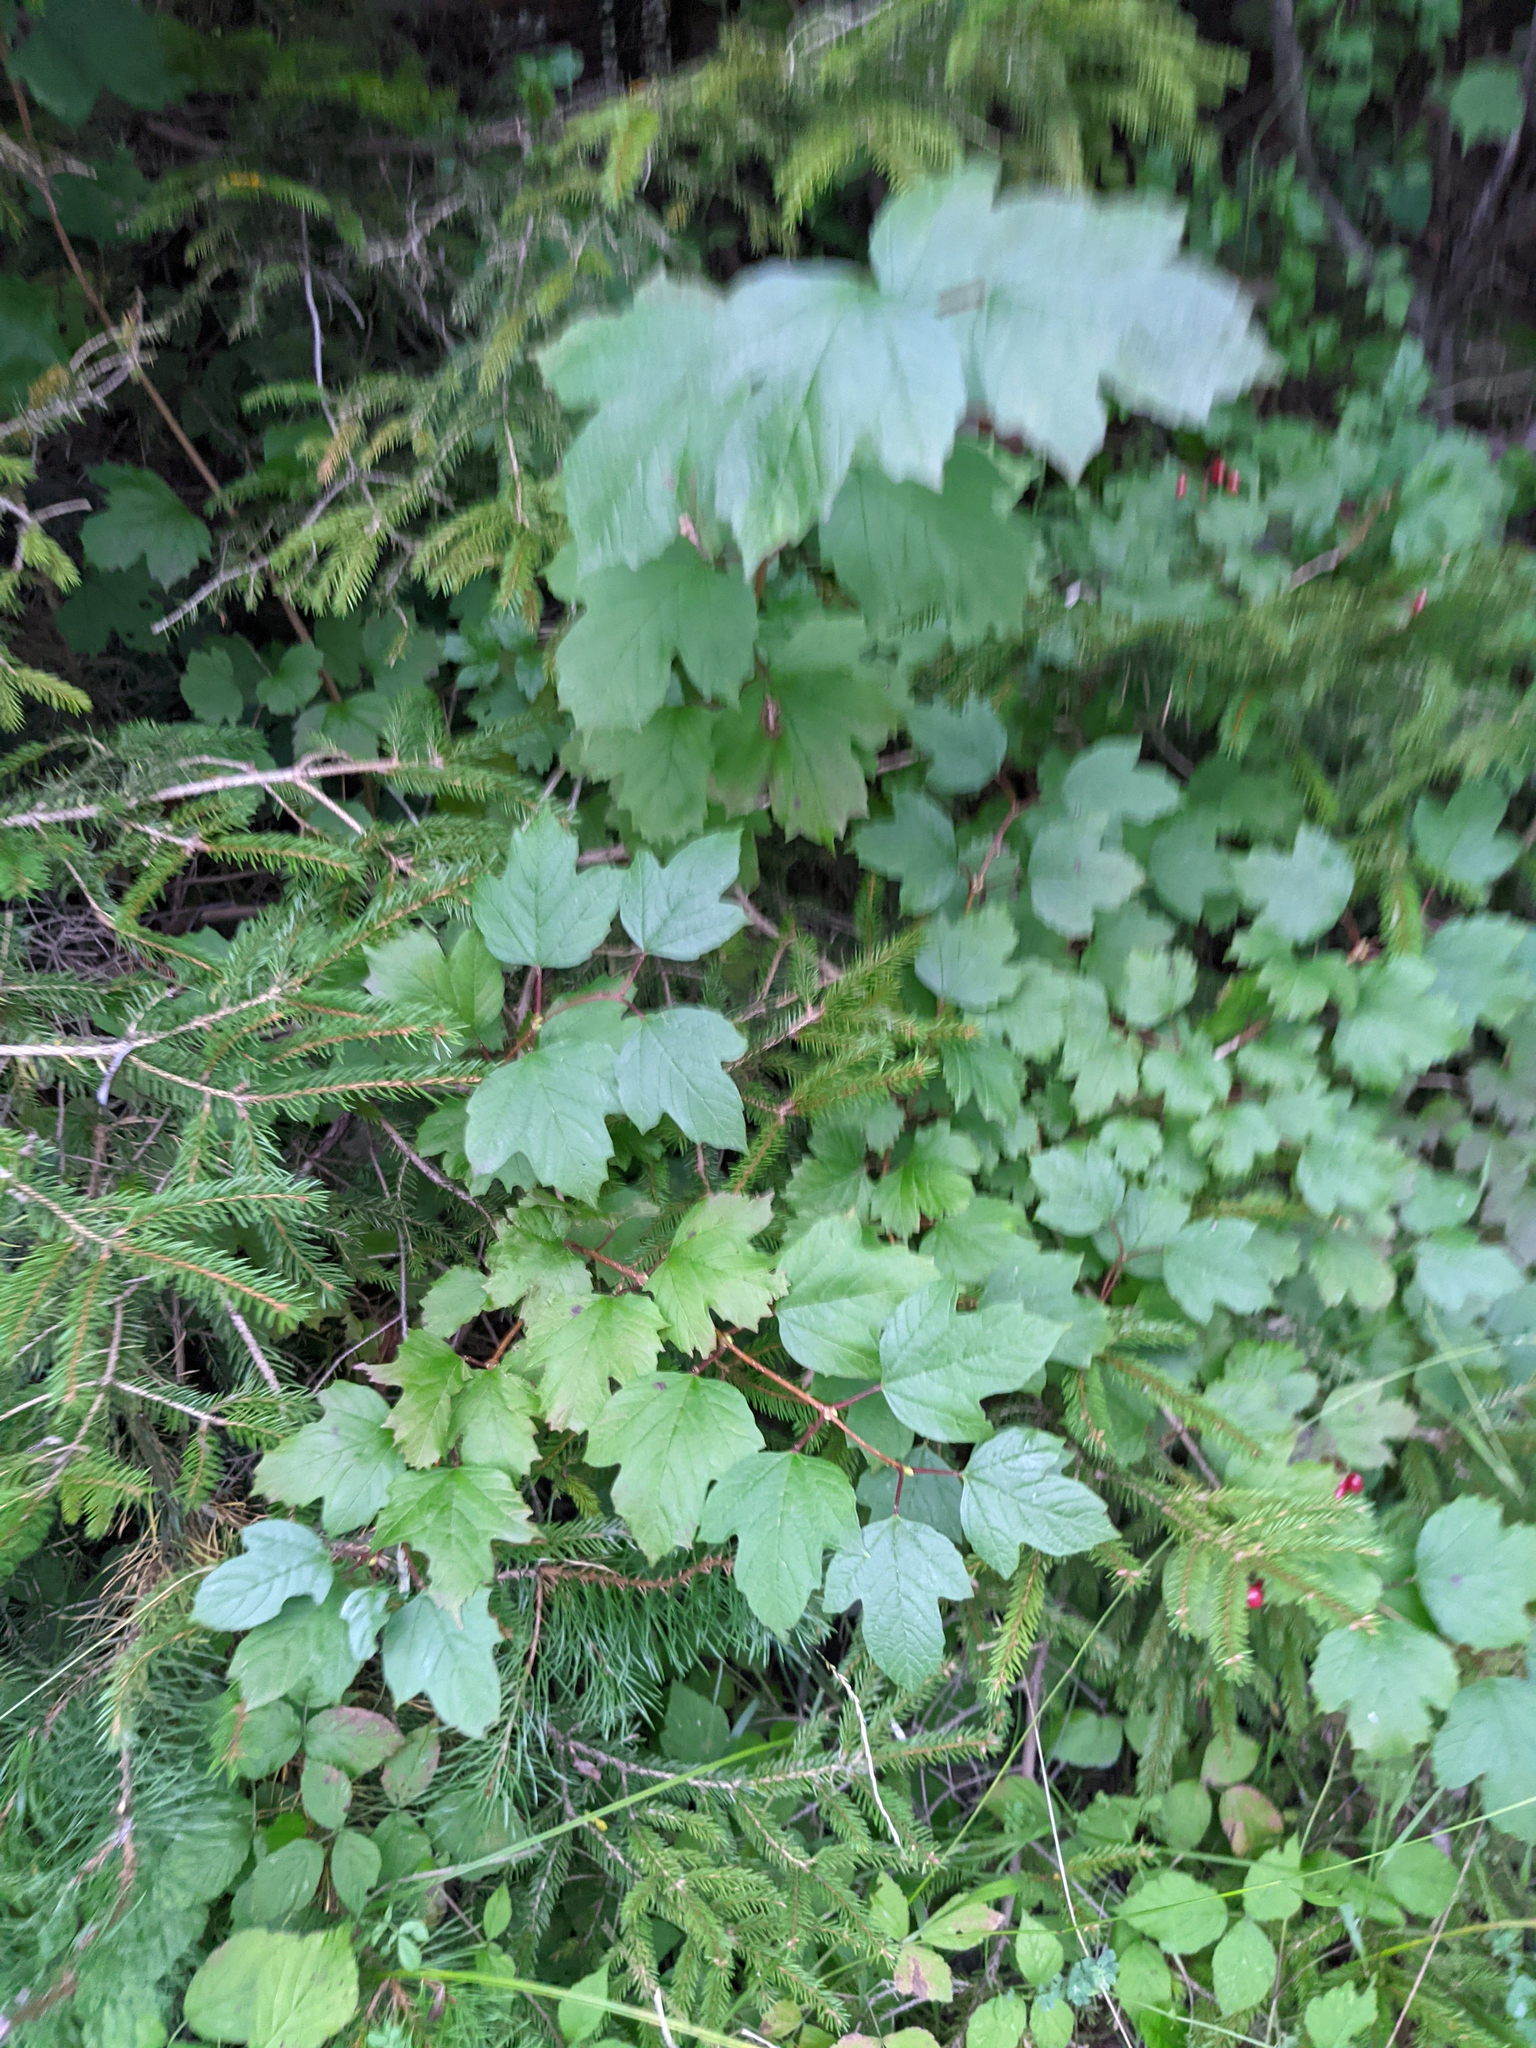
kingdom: Plantae
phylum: Tracheophyta
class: Magnoliopsida
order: Dipsacales
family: Viburnaceae
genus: Viburnum
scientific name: Viburnum opulus
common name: Guelder-rose
